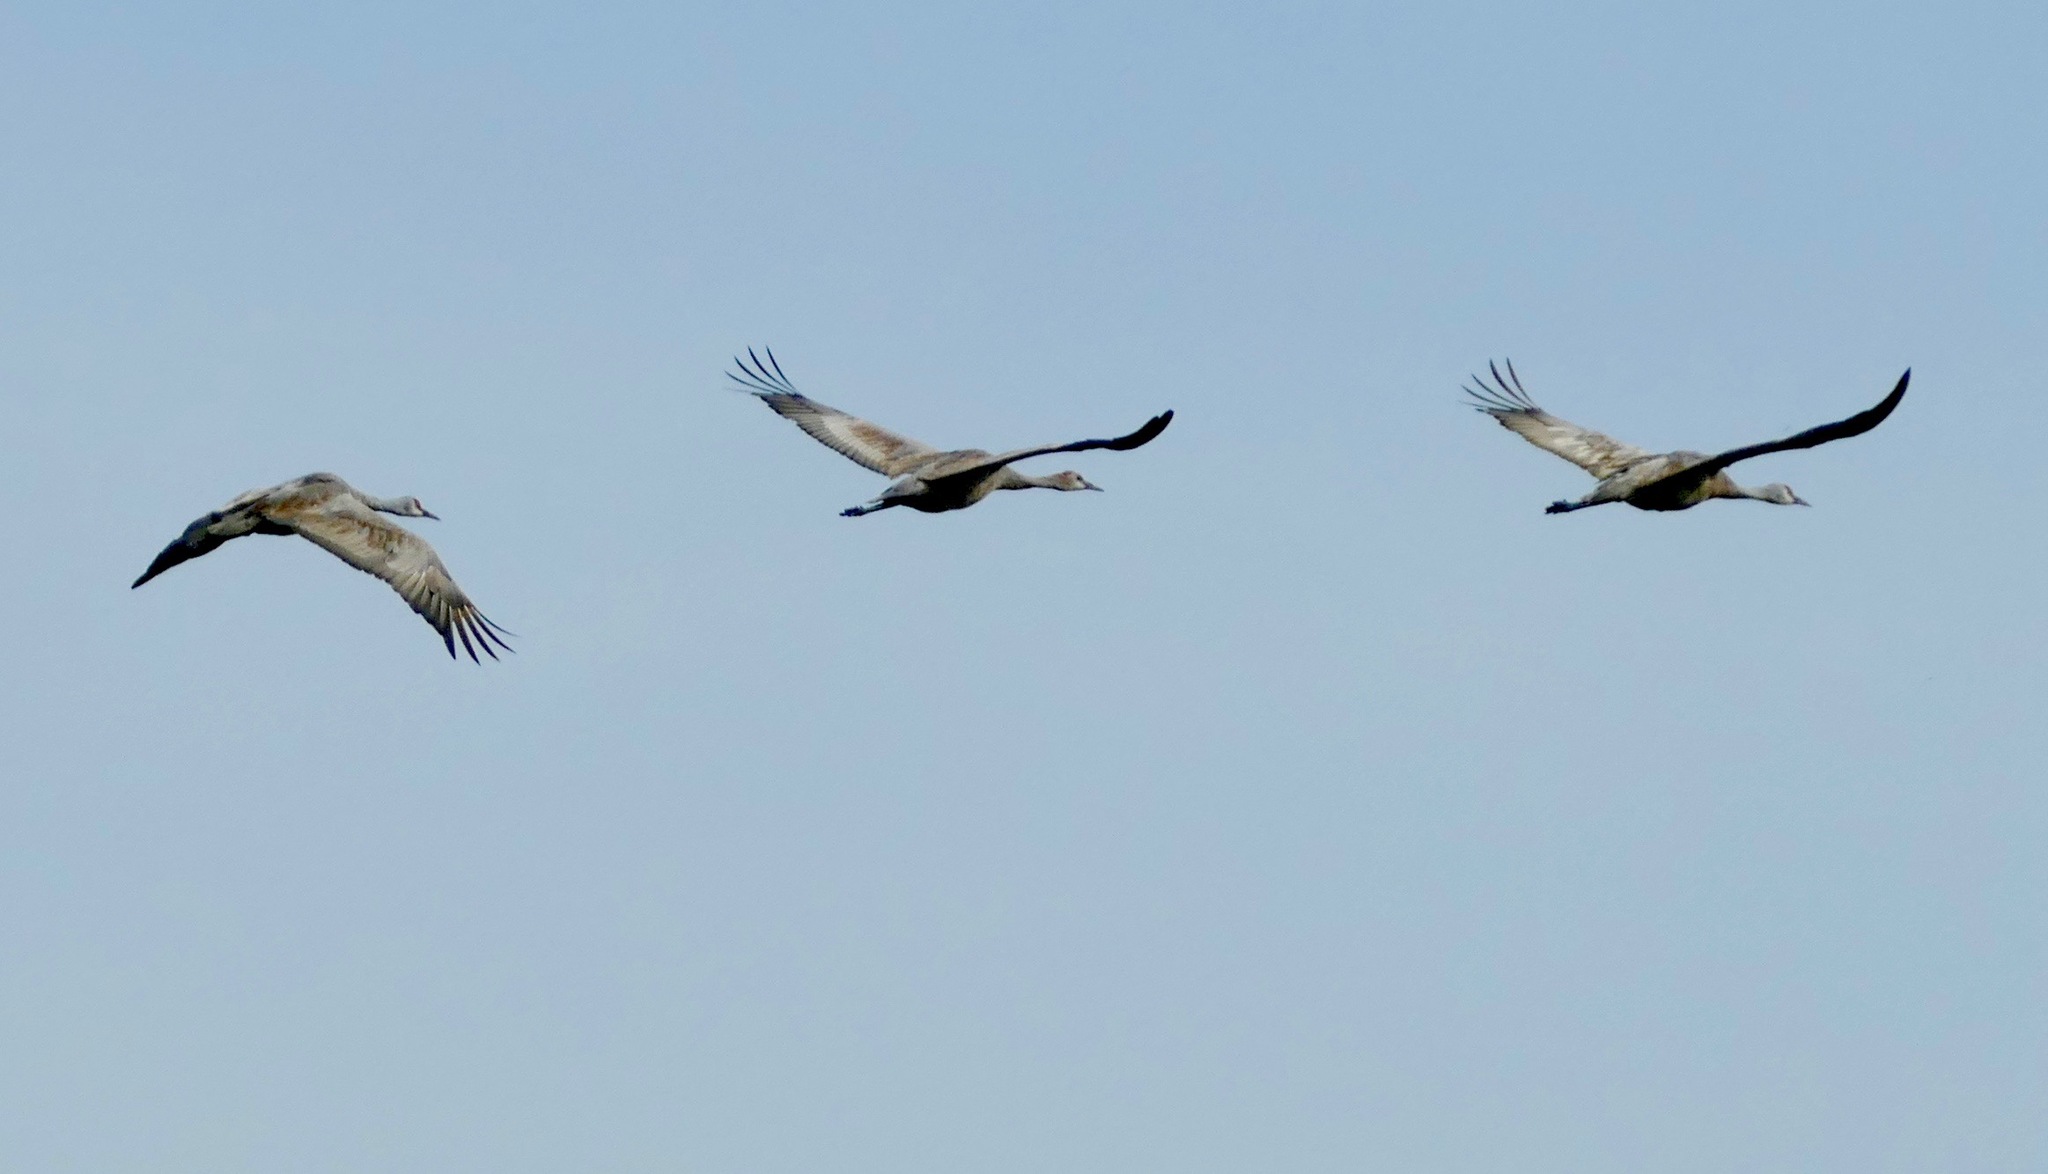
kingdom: Animalia
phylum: Chordata
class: Aves
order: Gruiformes
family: Gruidae
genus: Grus
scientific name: Grus canadensis
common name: Sandhill crane
